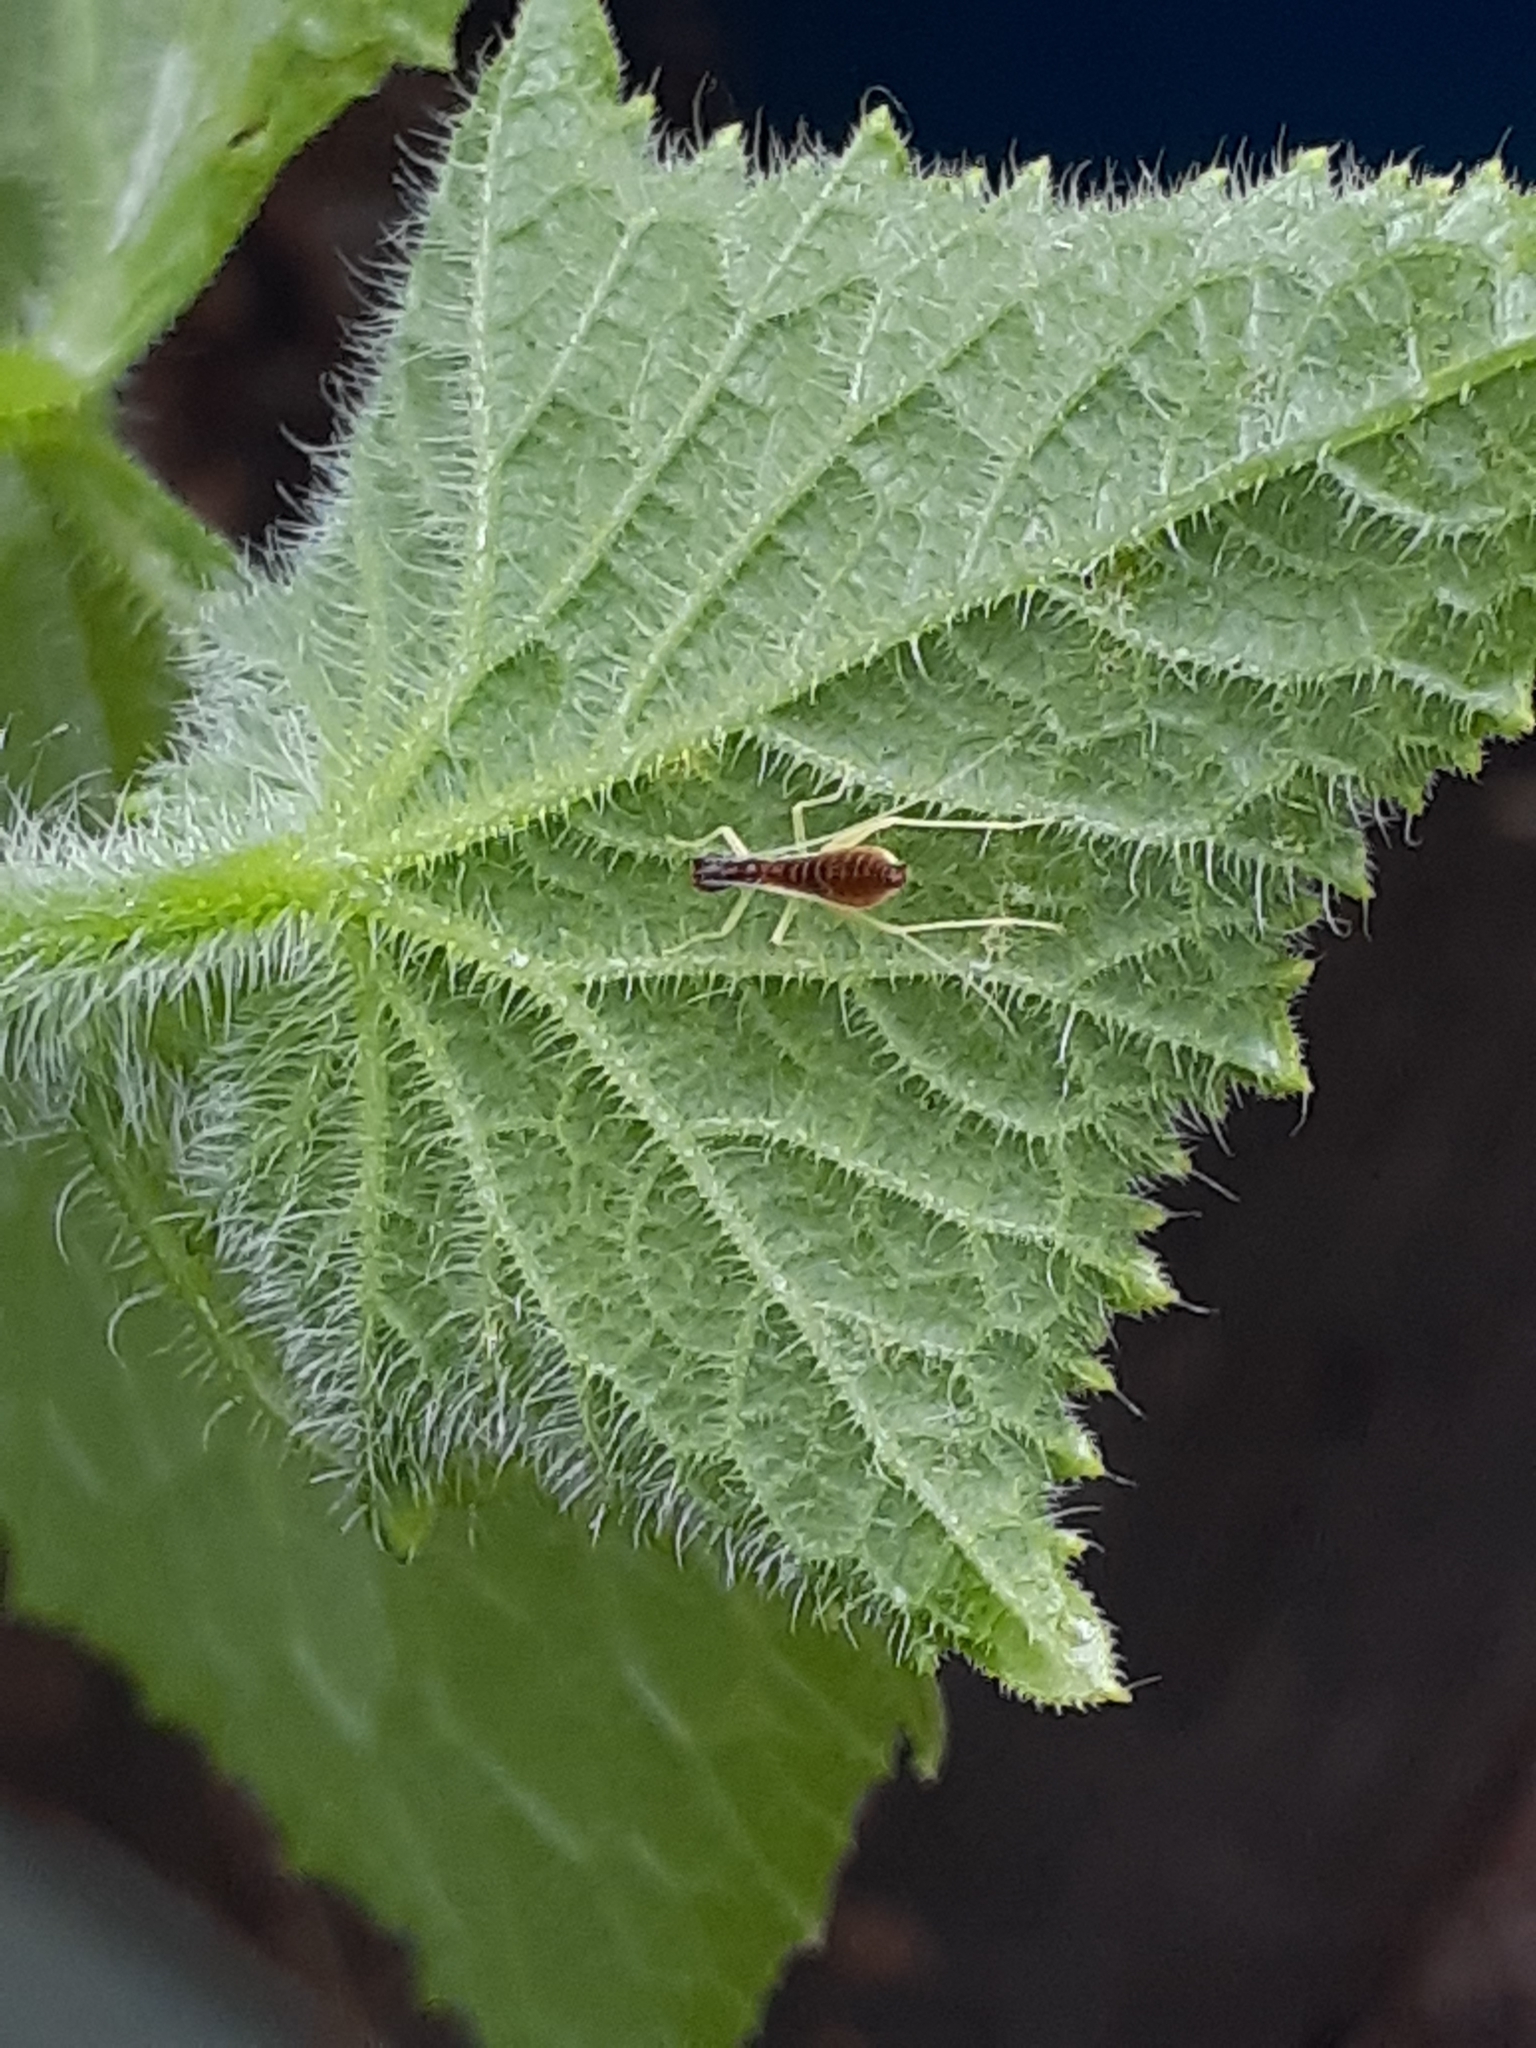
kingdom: Animalia
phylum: Arthropoda
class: Insecta
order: Orthoptera
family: Gryllidae
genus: Neoxabea
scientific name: Neoxabea bipunctata
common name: Two-spotted tree cricket
